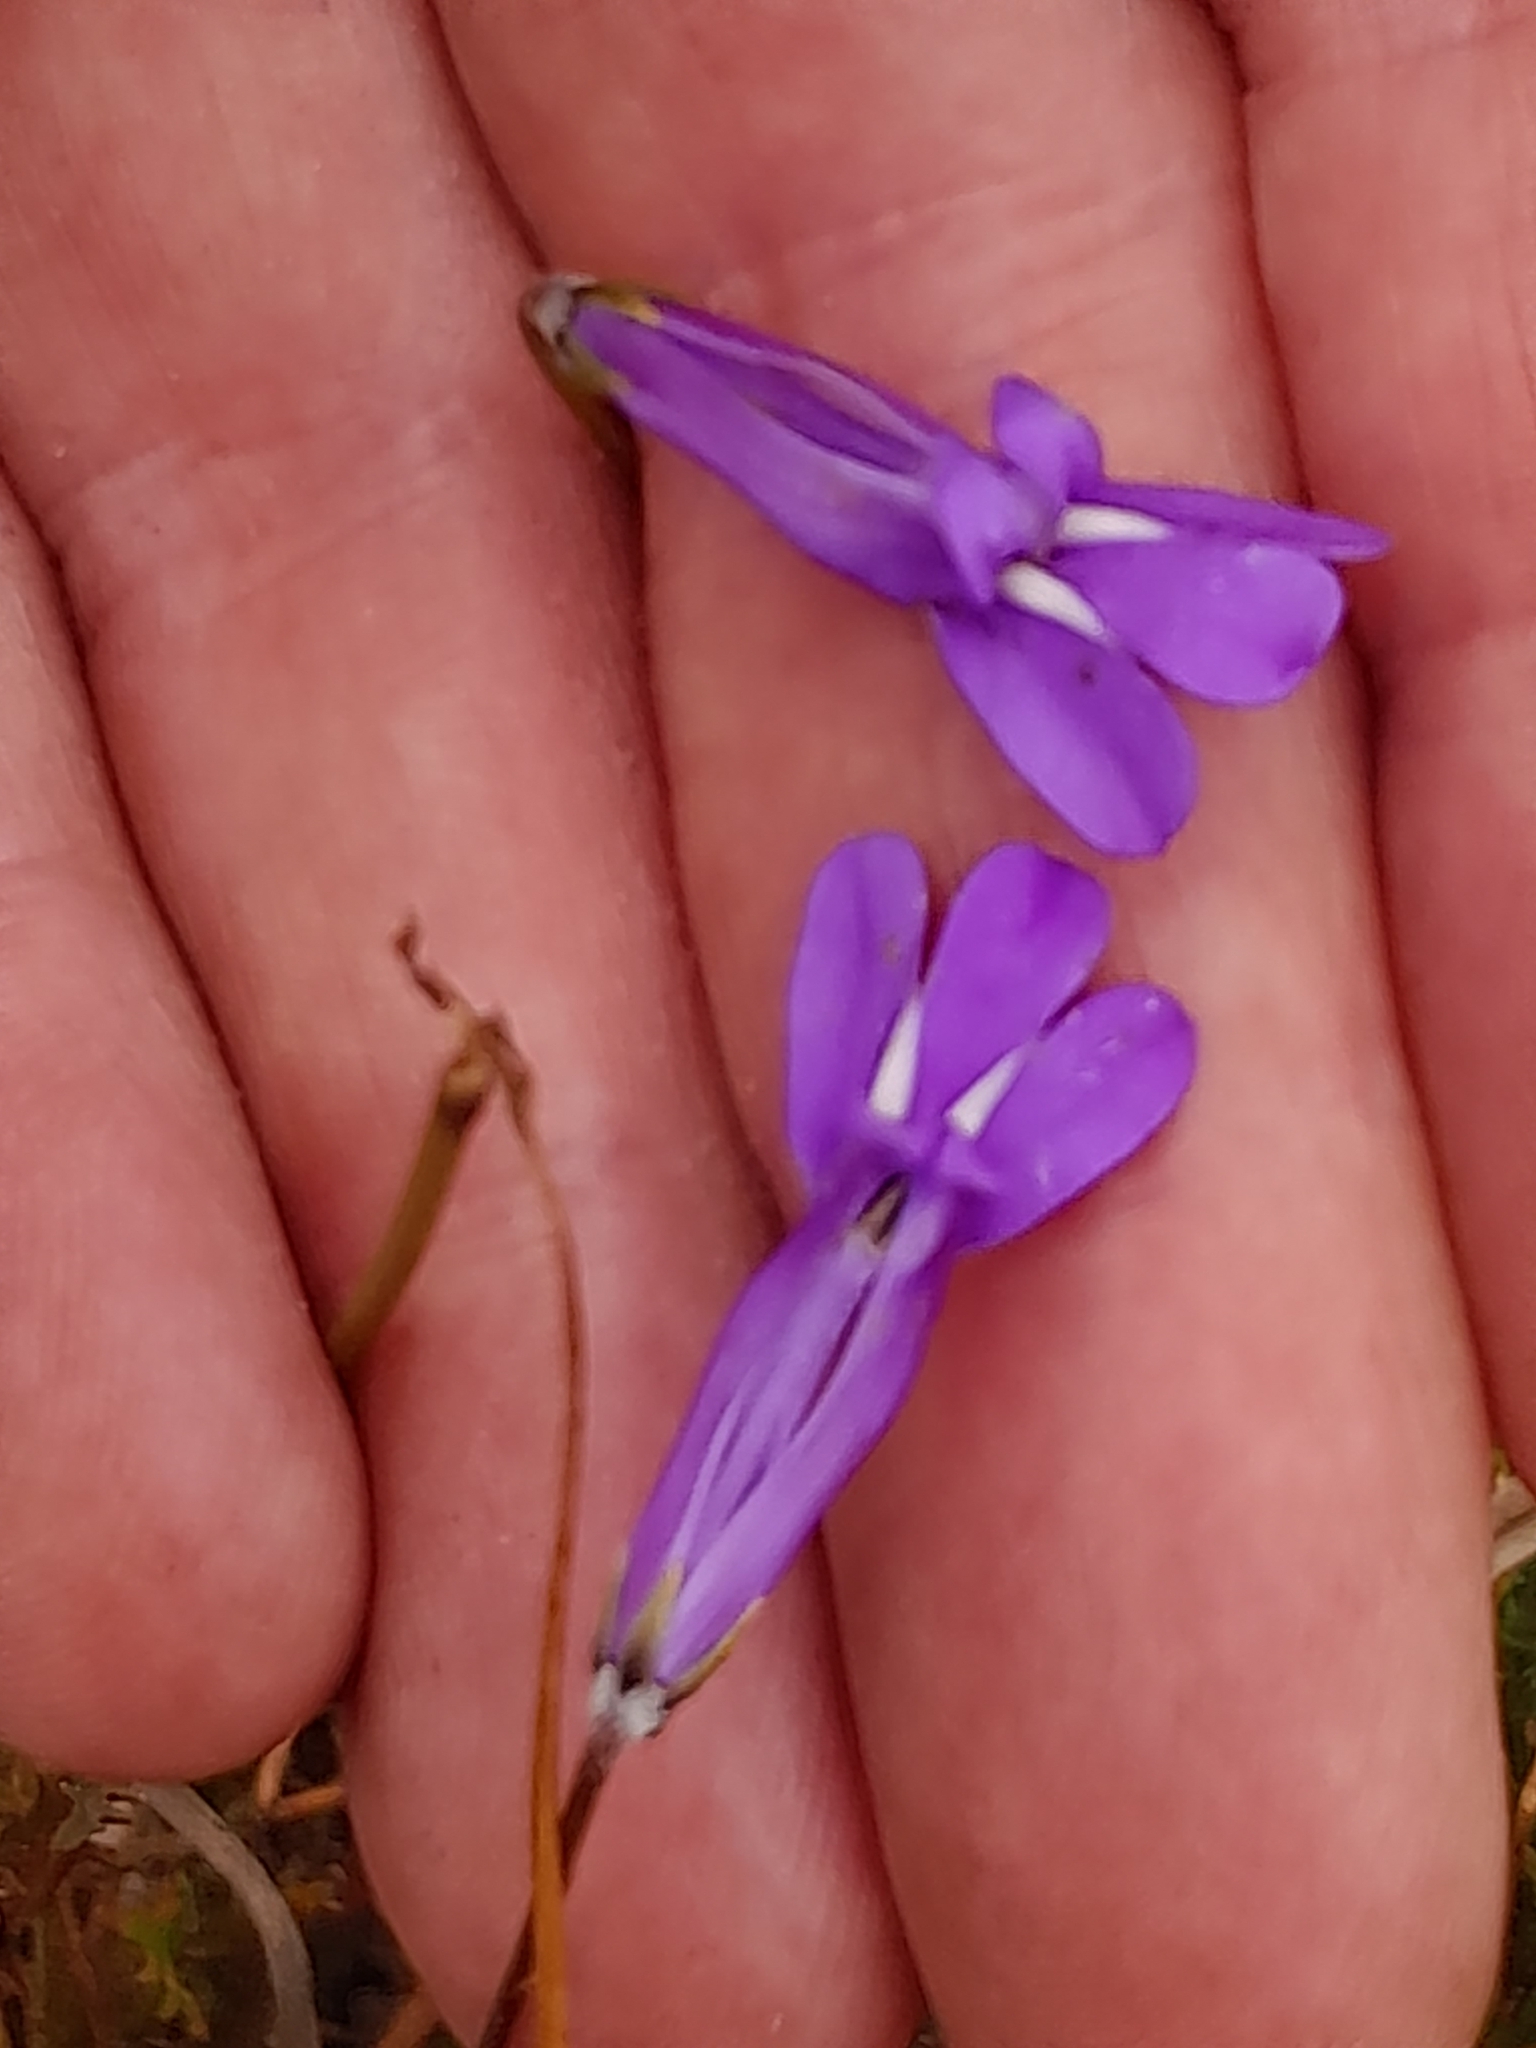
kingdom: Plantae
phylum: Tracheophyta
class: Magnoliopsida
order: Asterales
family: Campanulaceae
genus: Lobelia
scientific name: Lobelia coronopifolia
